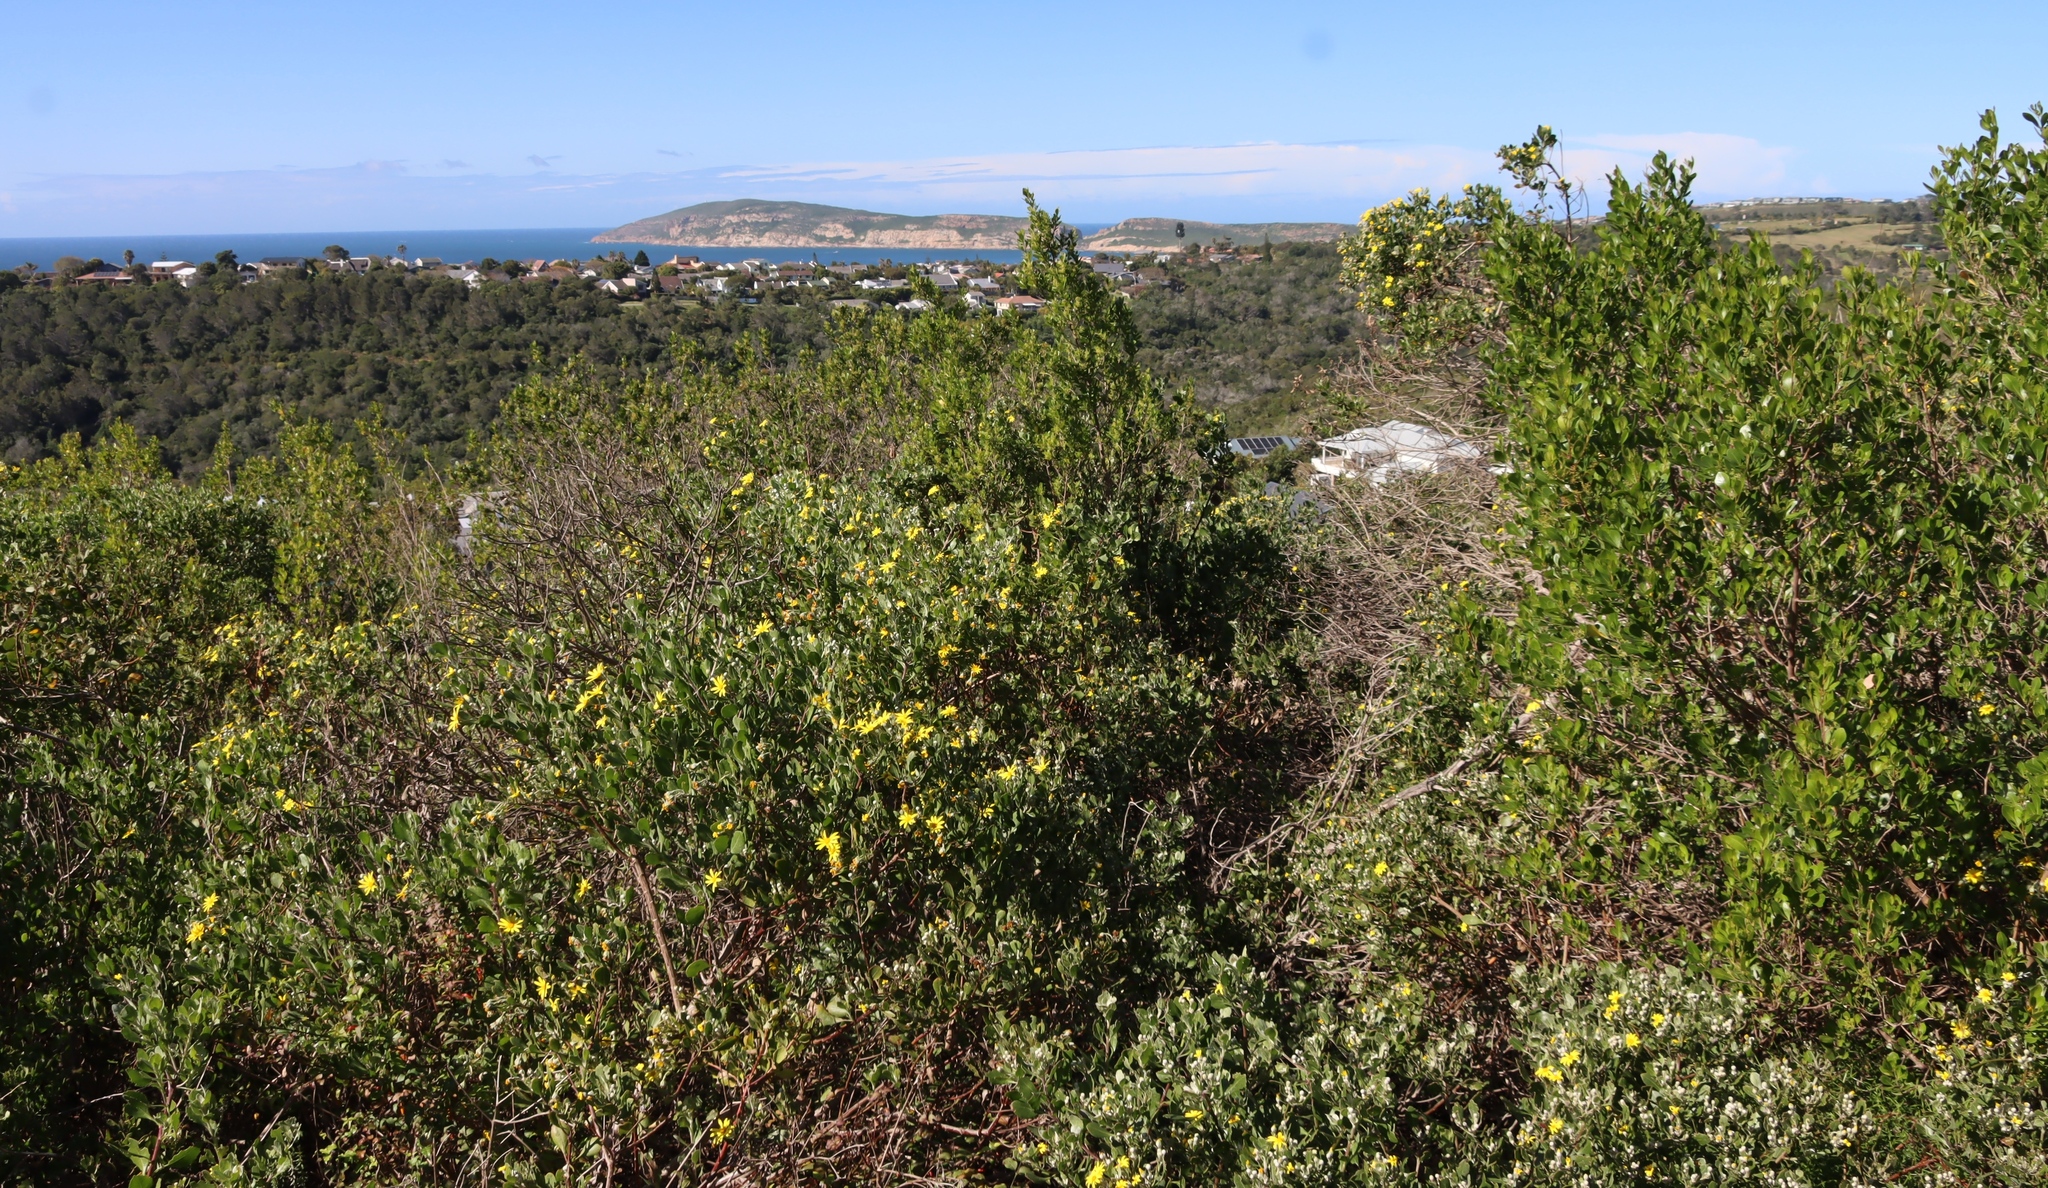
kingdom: Plantae
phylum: Tracheophyta
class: Magnoliopsida
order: Asterales
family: Asteraceae
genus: Osteospermum
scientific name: Osteospermum moniliferum
